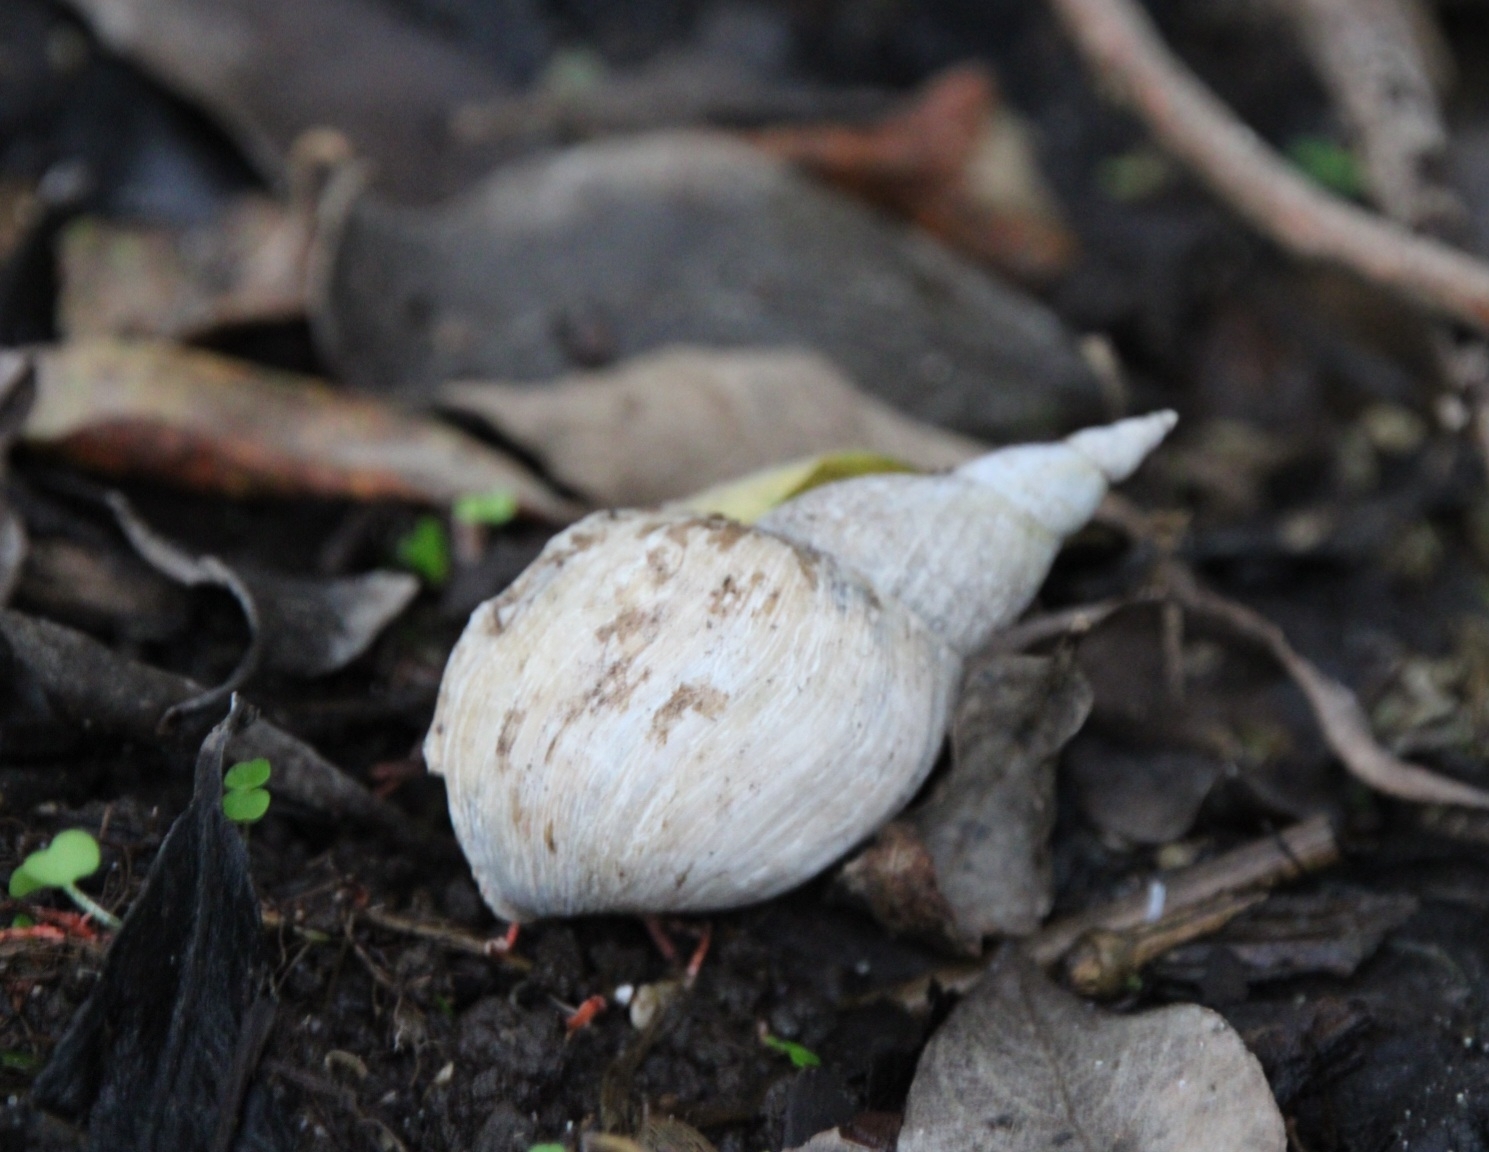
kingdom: Animalia
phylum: Mollusca
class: Gastropoda
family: Lymnaeidae
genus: Lymnaea
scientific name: Lymnaea stagnalis
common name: Great pond snail
